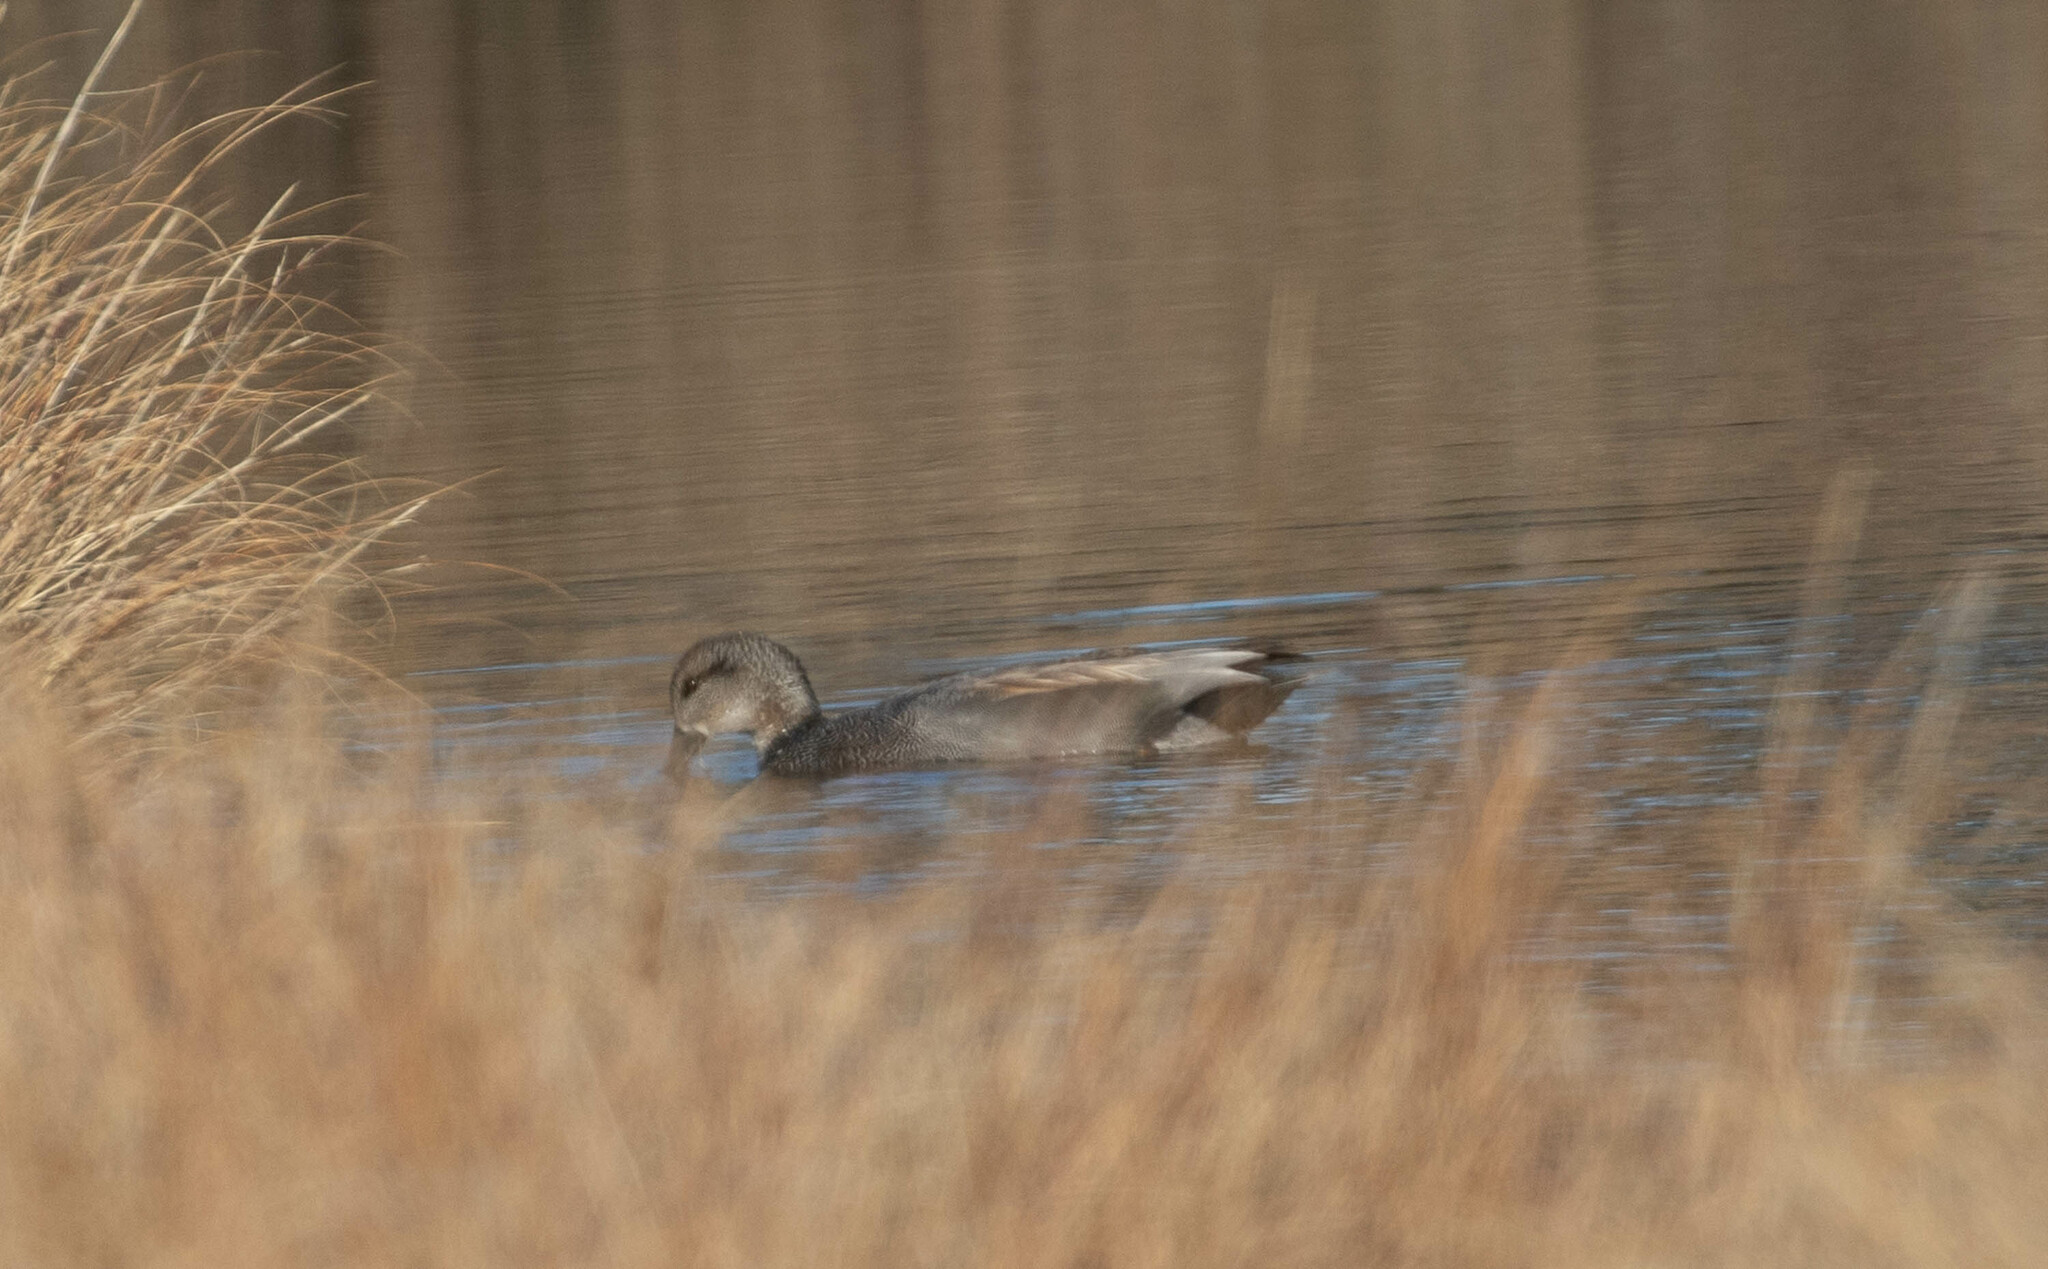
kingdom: Animalia
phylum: Chordata
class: Aves
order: Anseriformes
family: Anatidae
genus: Mareca
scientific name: Mareca strepera
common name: Gadwall
